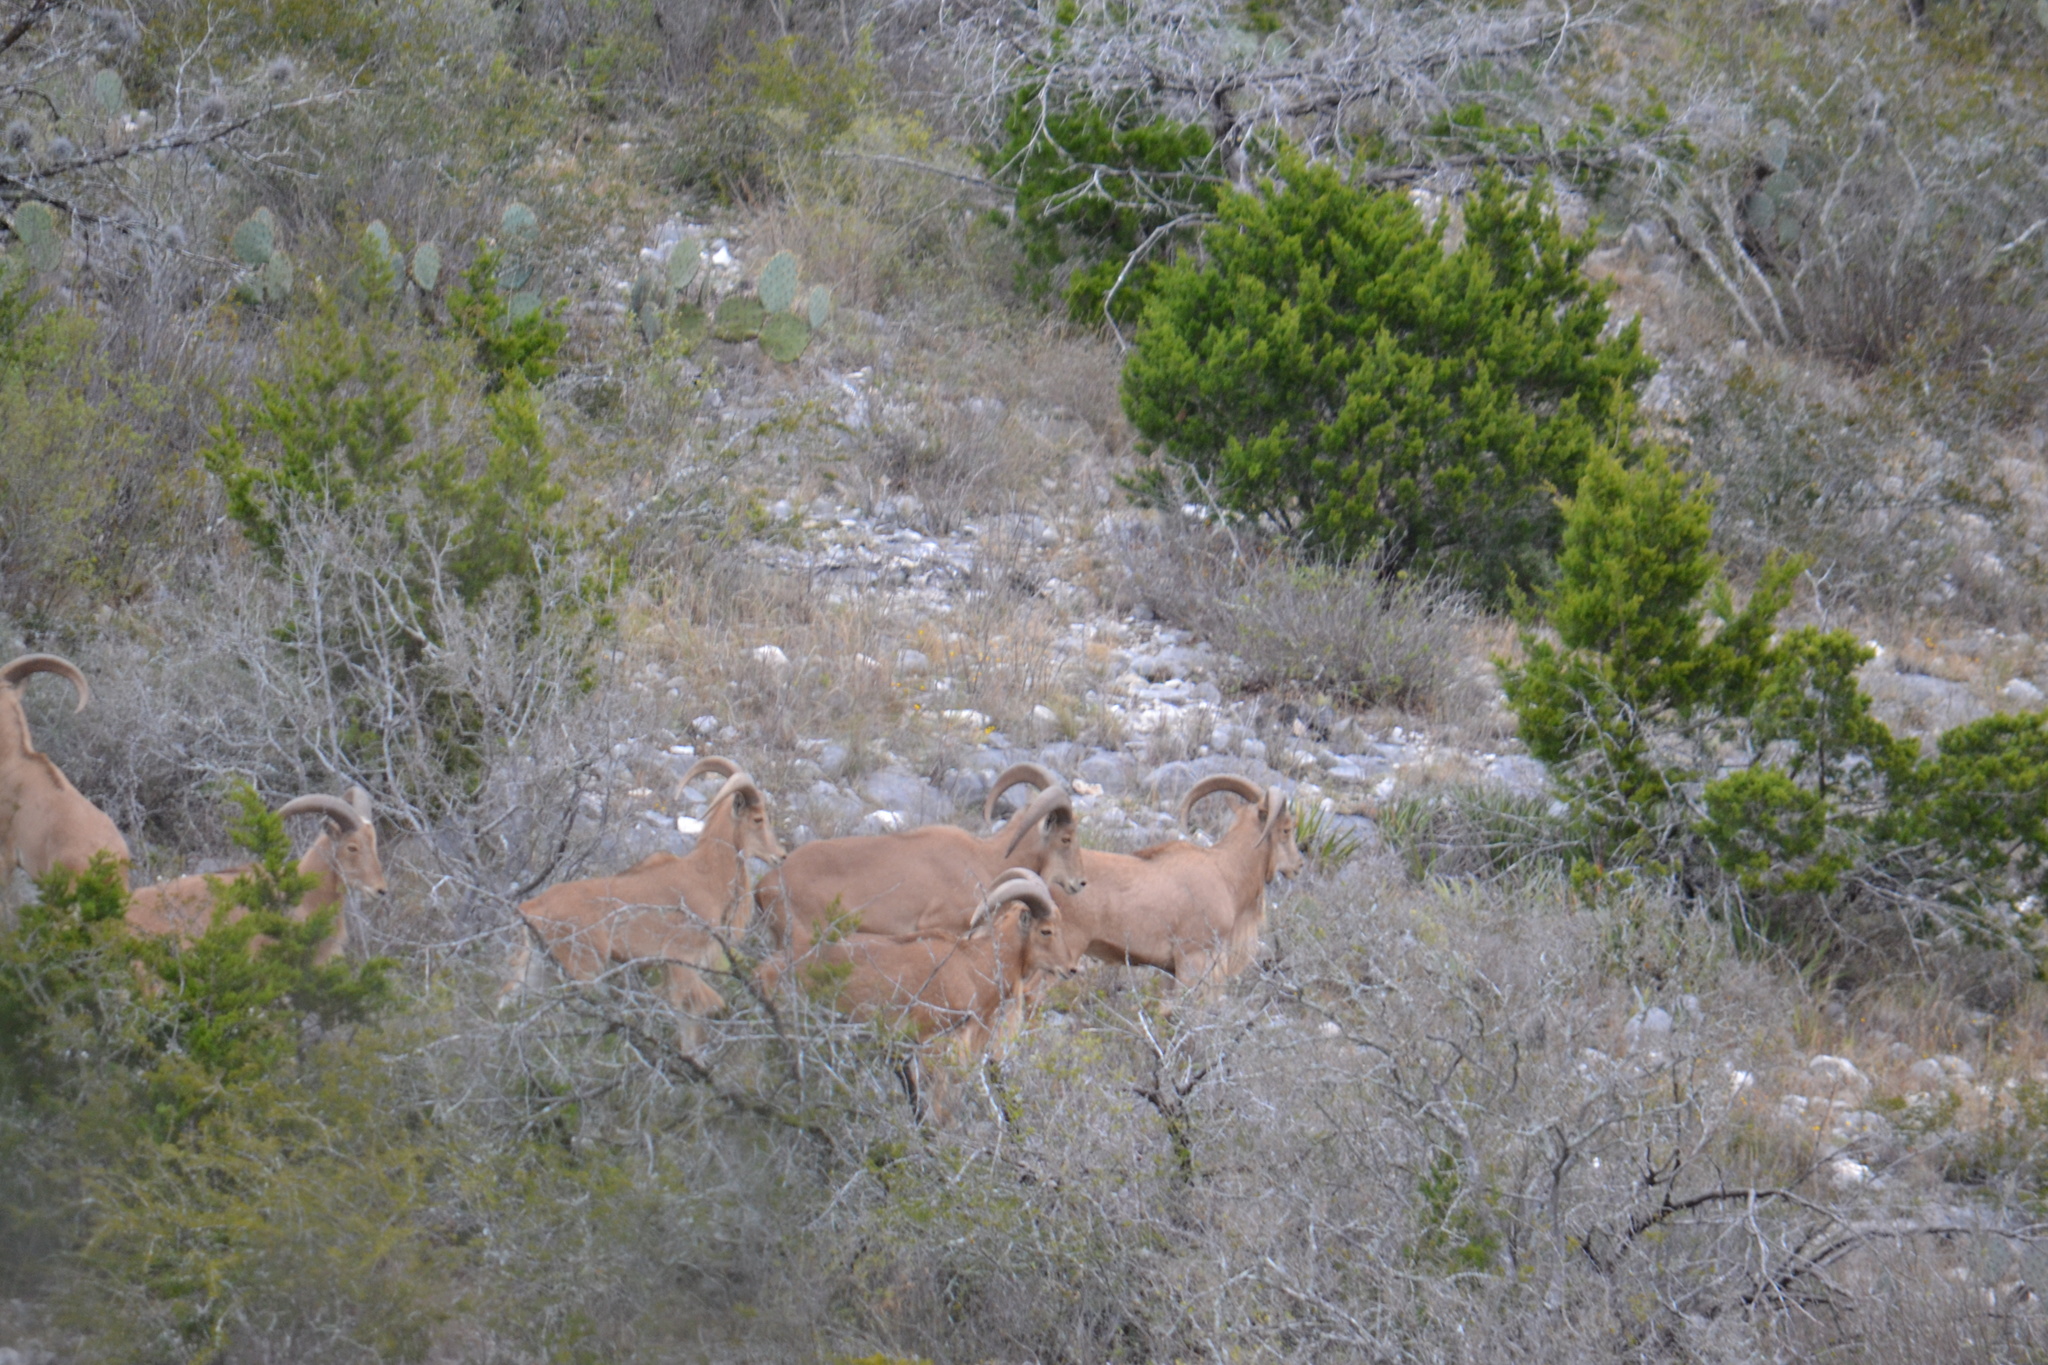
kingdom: Animalia
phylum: Chordata
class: Mammalia
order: Artiodactyla
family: Bovidae
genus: Ammotragus
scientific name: Ammotragus lervia
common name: Barbary sheep
